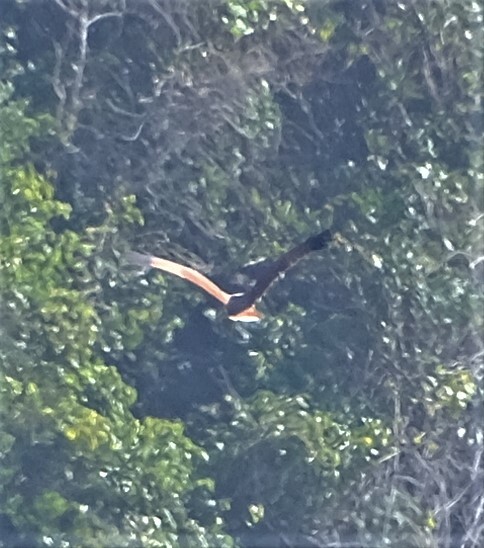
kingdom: Animalia
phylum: Chordata
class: Aves
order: Accipitriformes
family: Accipitridae
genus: Haliastur
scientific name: Haliastur indus
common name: Brahminy kite
